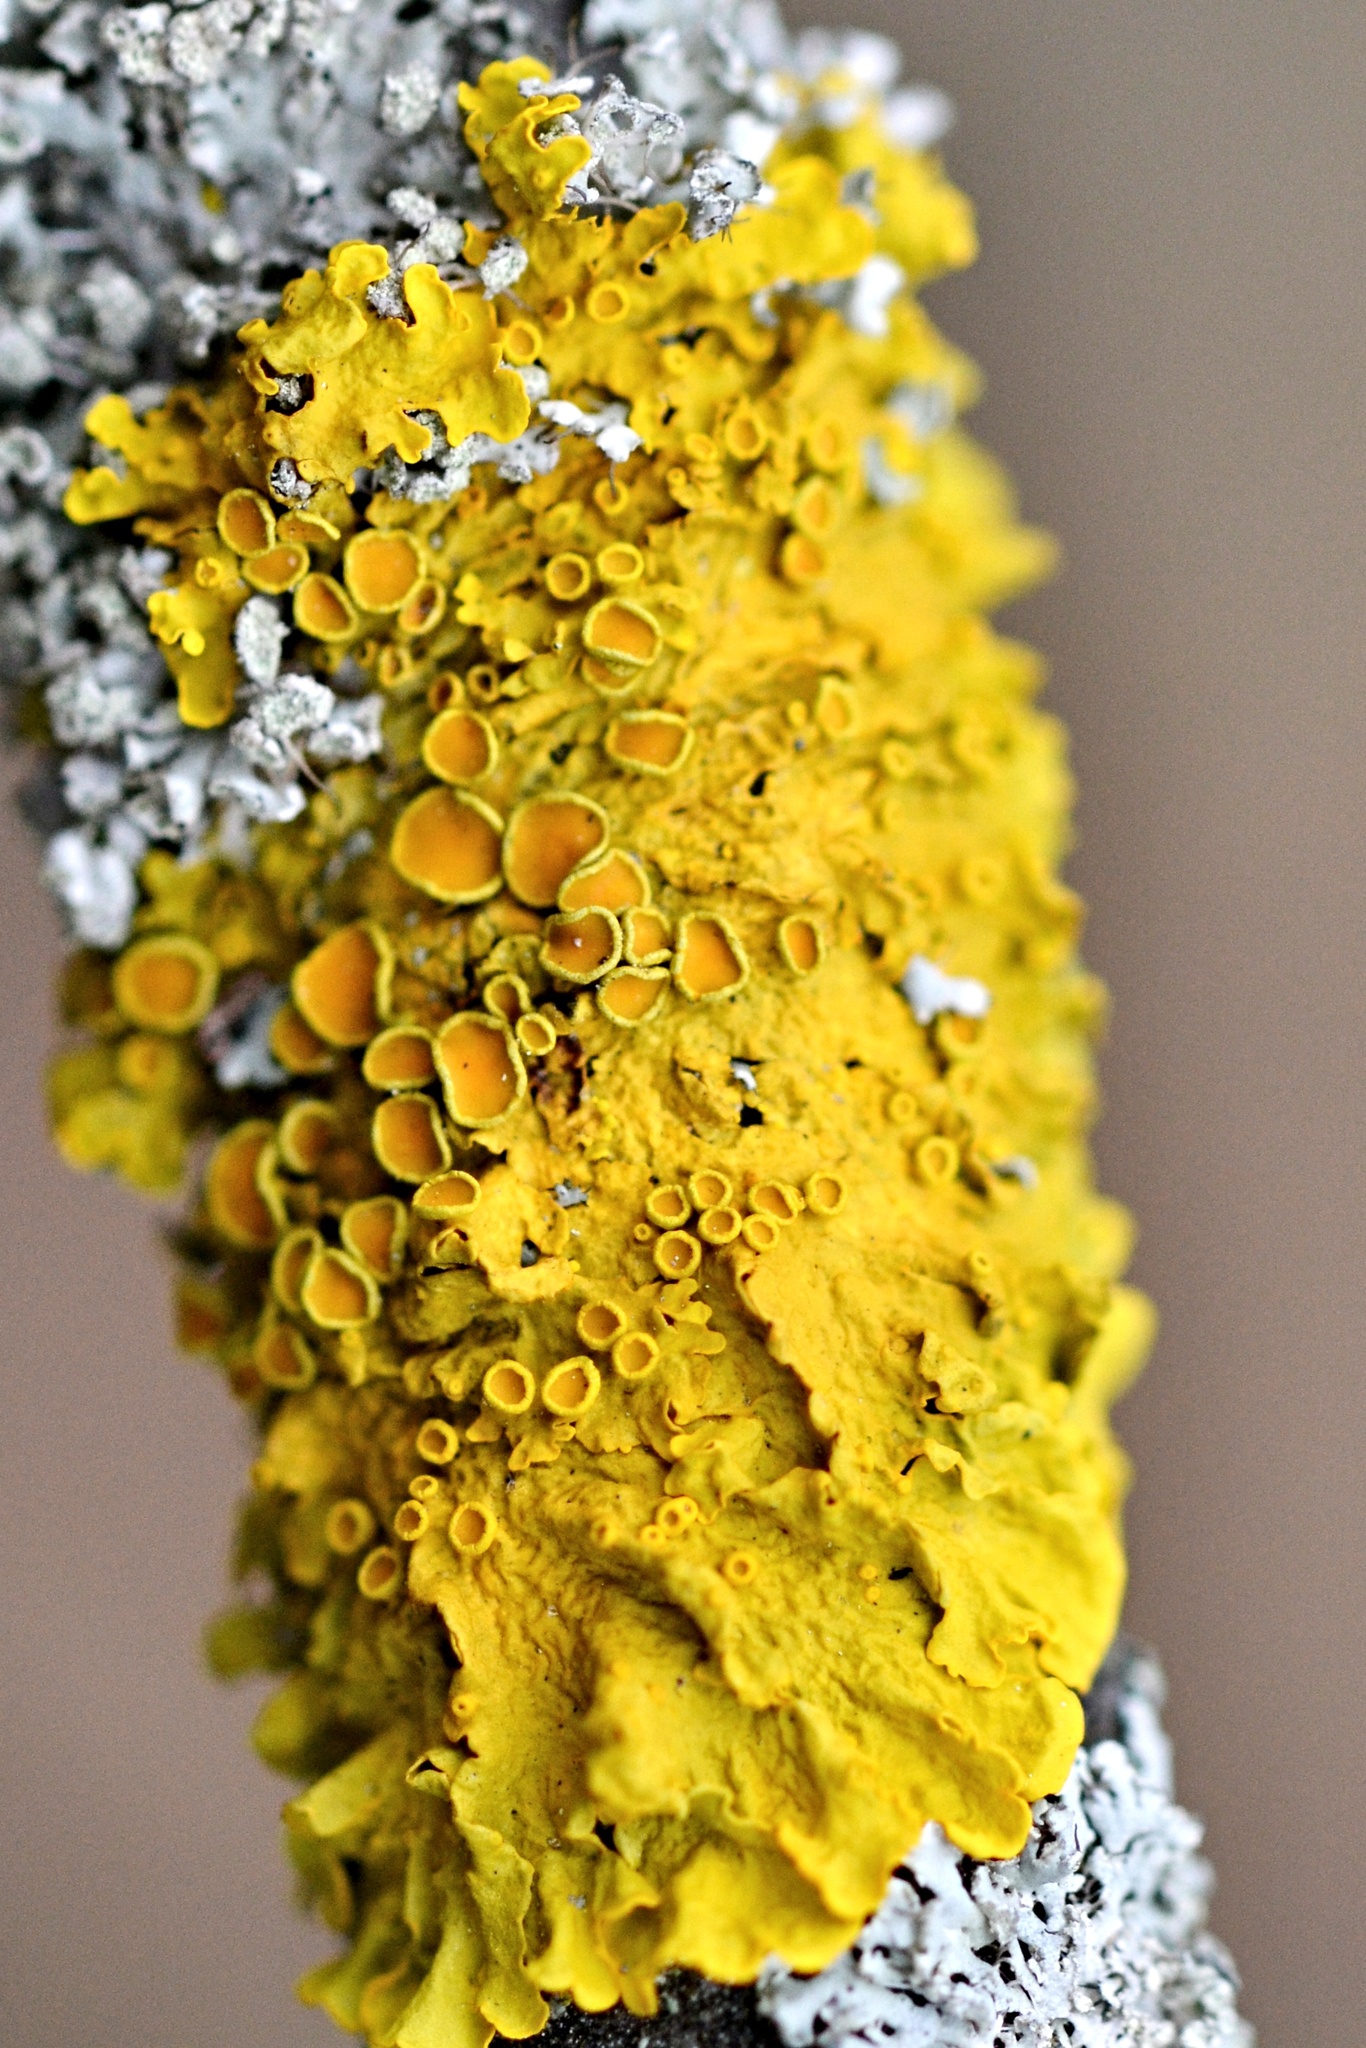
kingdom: Fungi
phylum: Ascomycota
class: Lecanoromycetes
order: Teloschistales
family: Teloschistaceae
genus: Xanthoria
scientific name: Xanthoria parietina
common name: Common orange lichen
